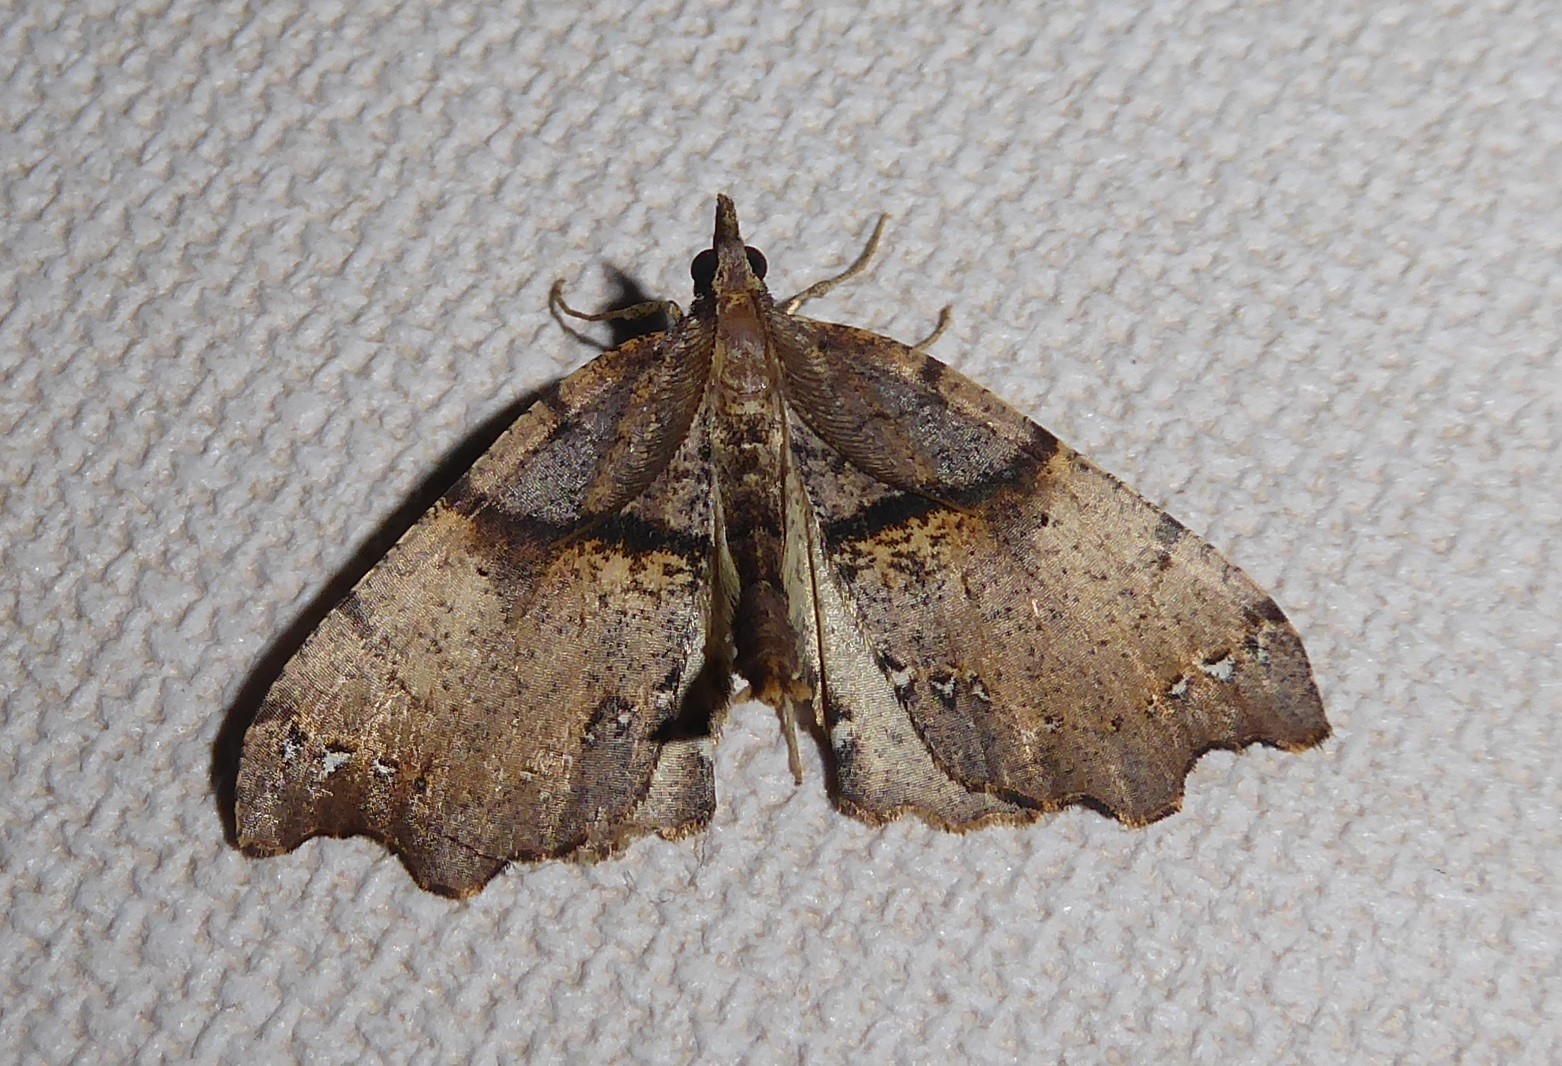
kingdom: Animalia
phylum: Arthropoda
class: Insecta
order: Lepidoptera
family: Geometridae
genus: Chalastra
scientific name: Chalastra pellurgata
